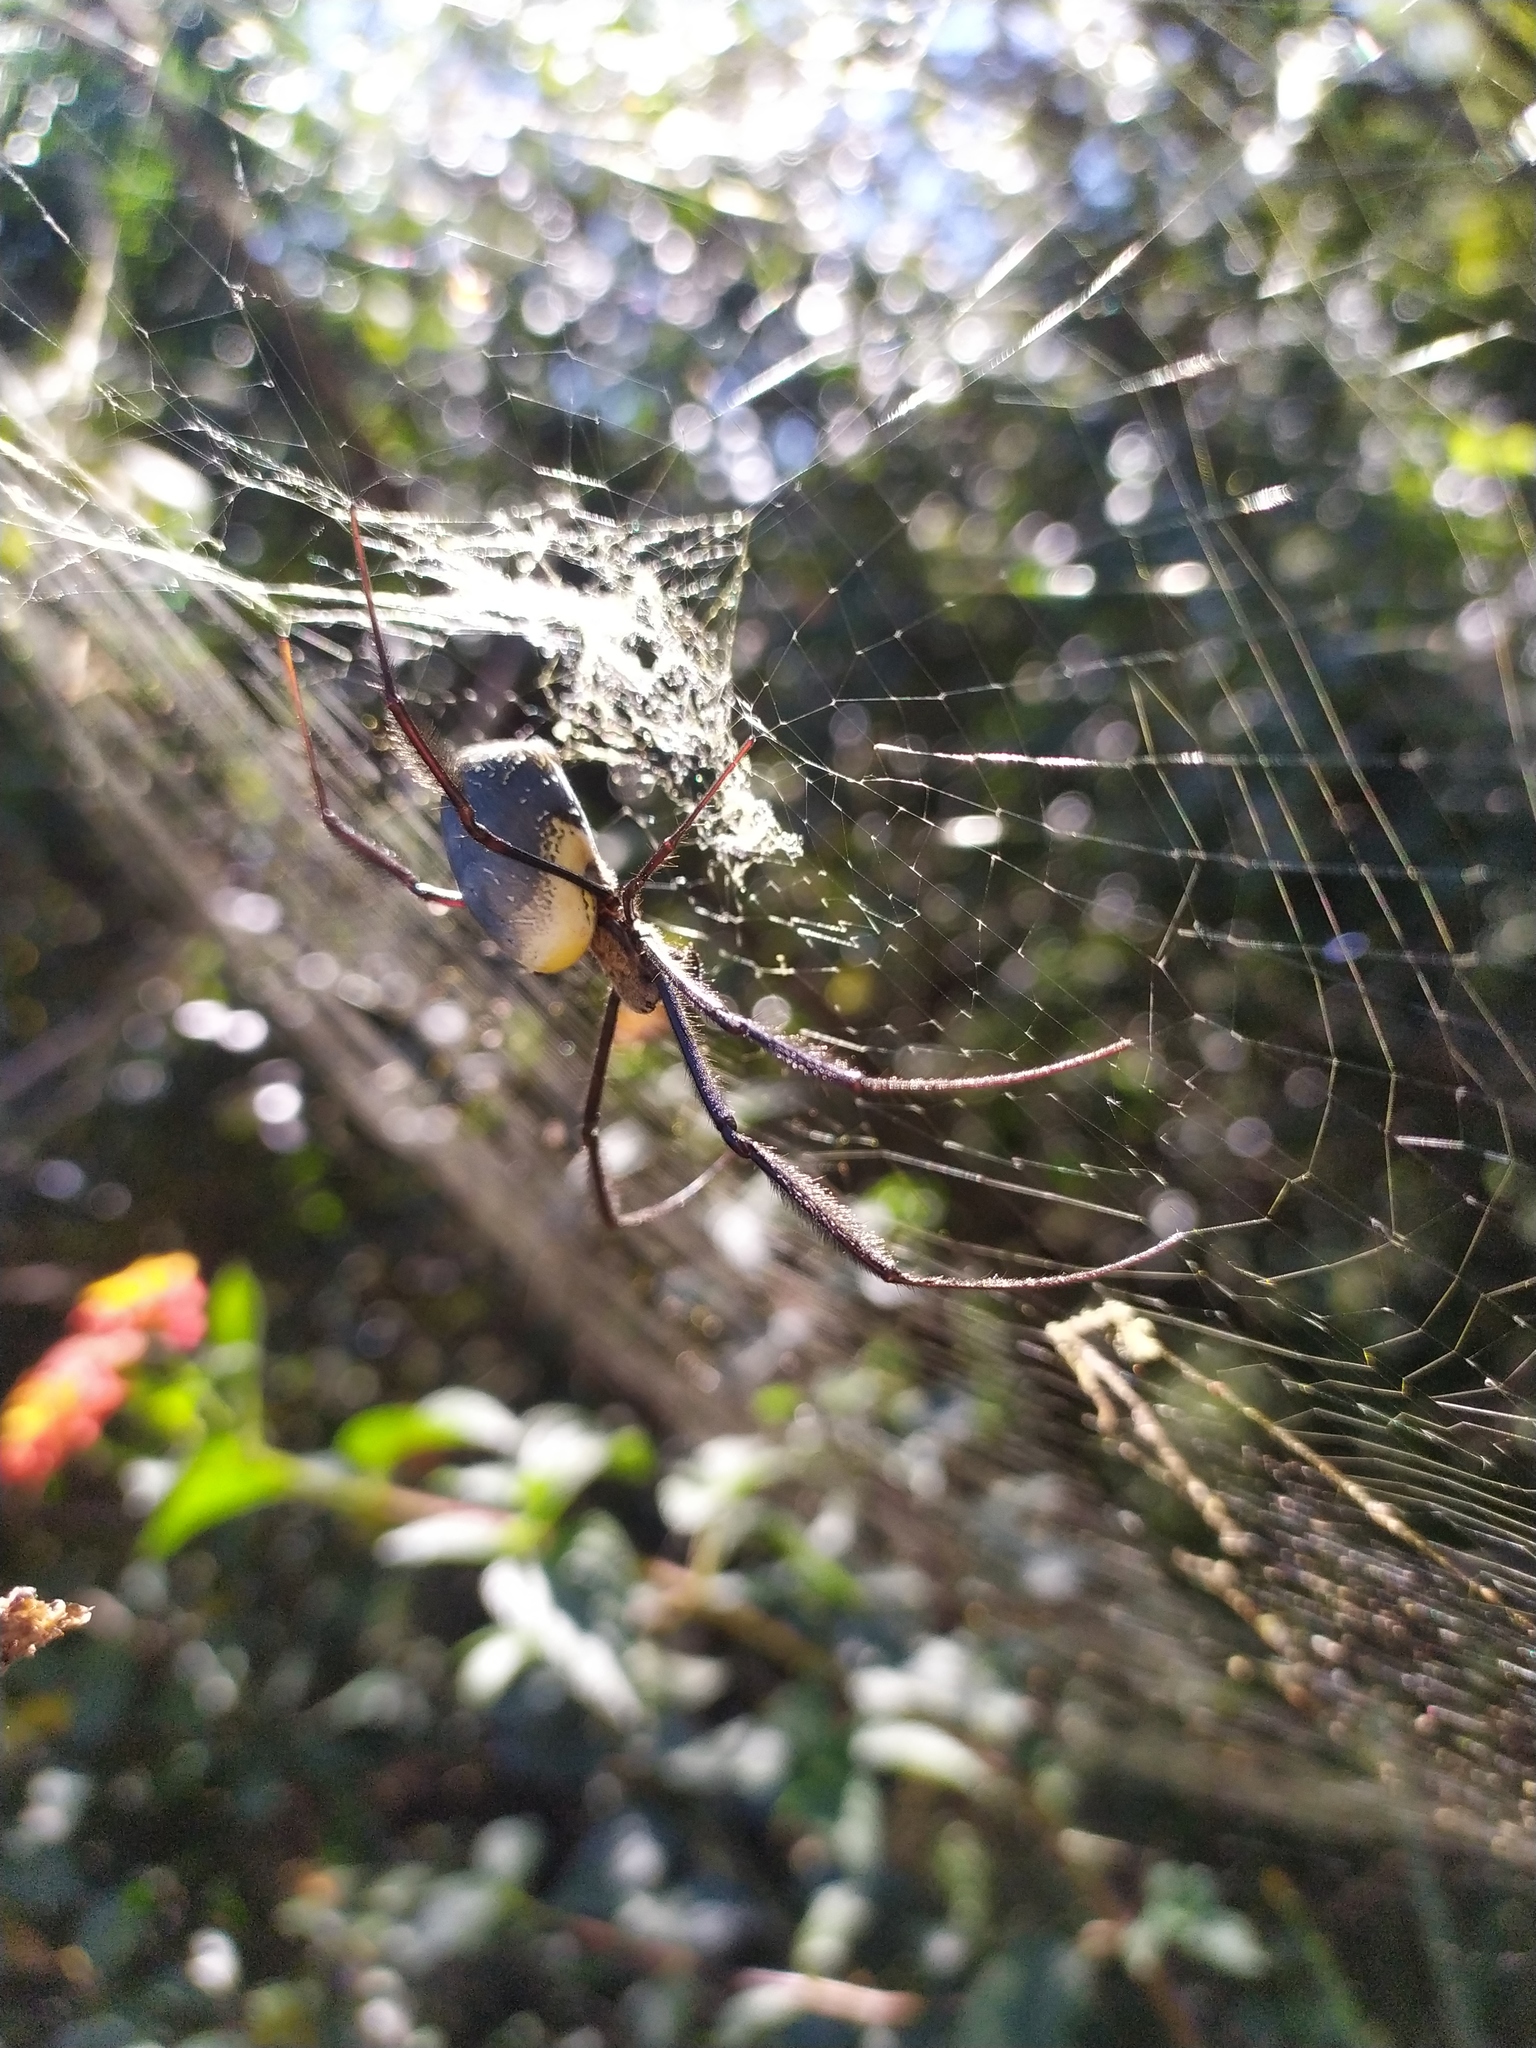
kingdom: Animalia
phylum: Arthropoda
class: Arachnida
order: Araneae
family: Araneidae
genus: Trichonephila
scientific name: Trichonephila fenestrata
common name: Hairy golden orb weaver
